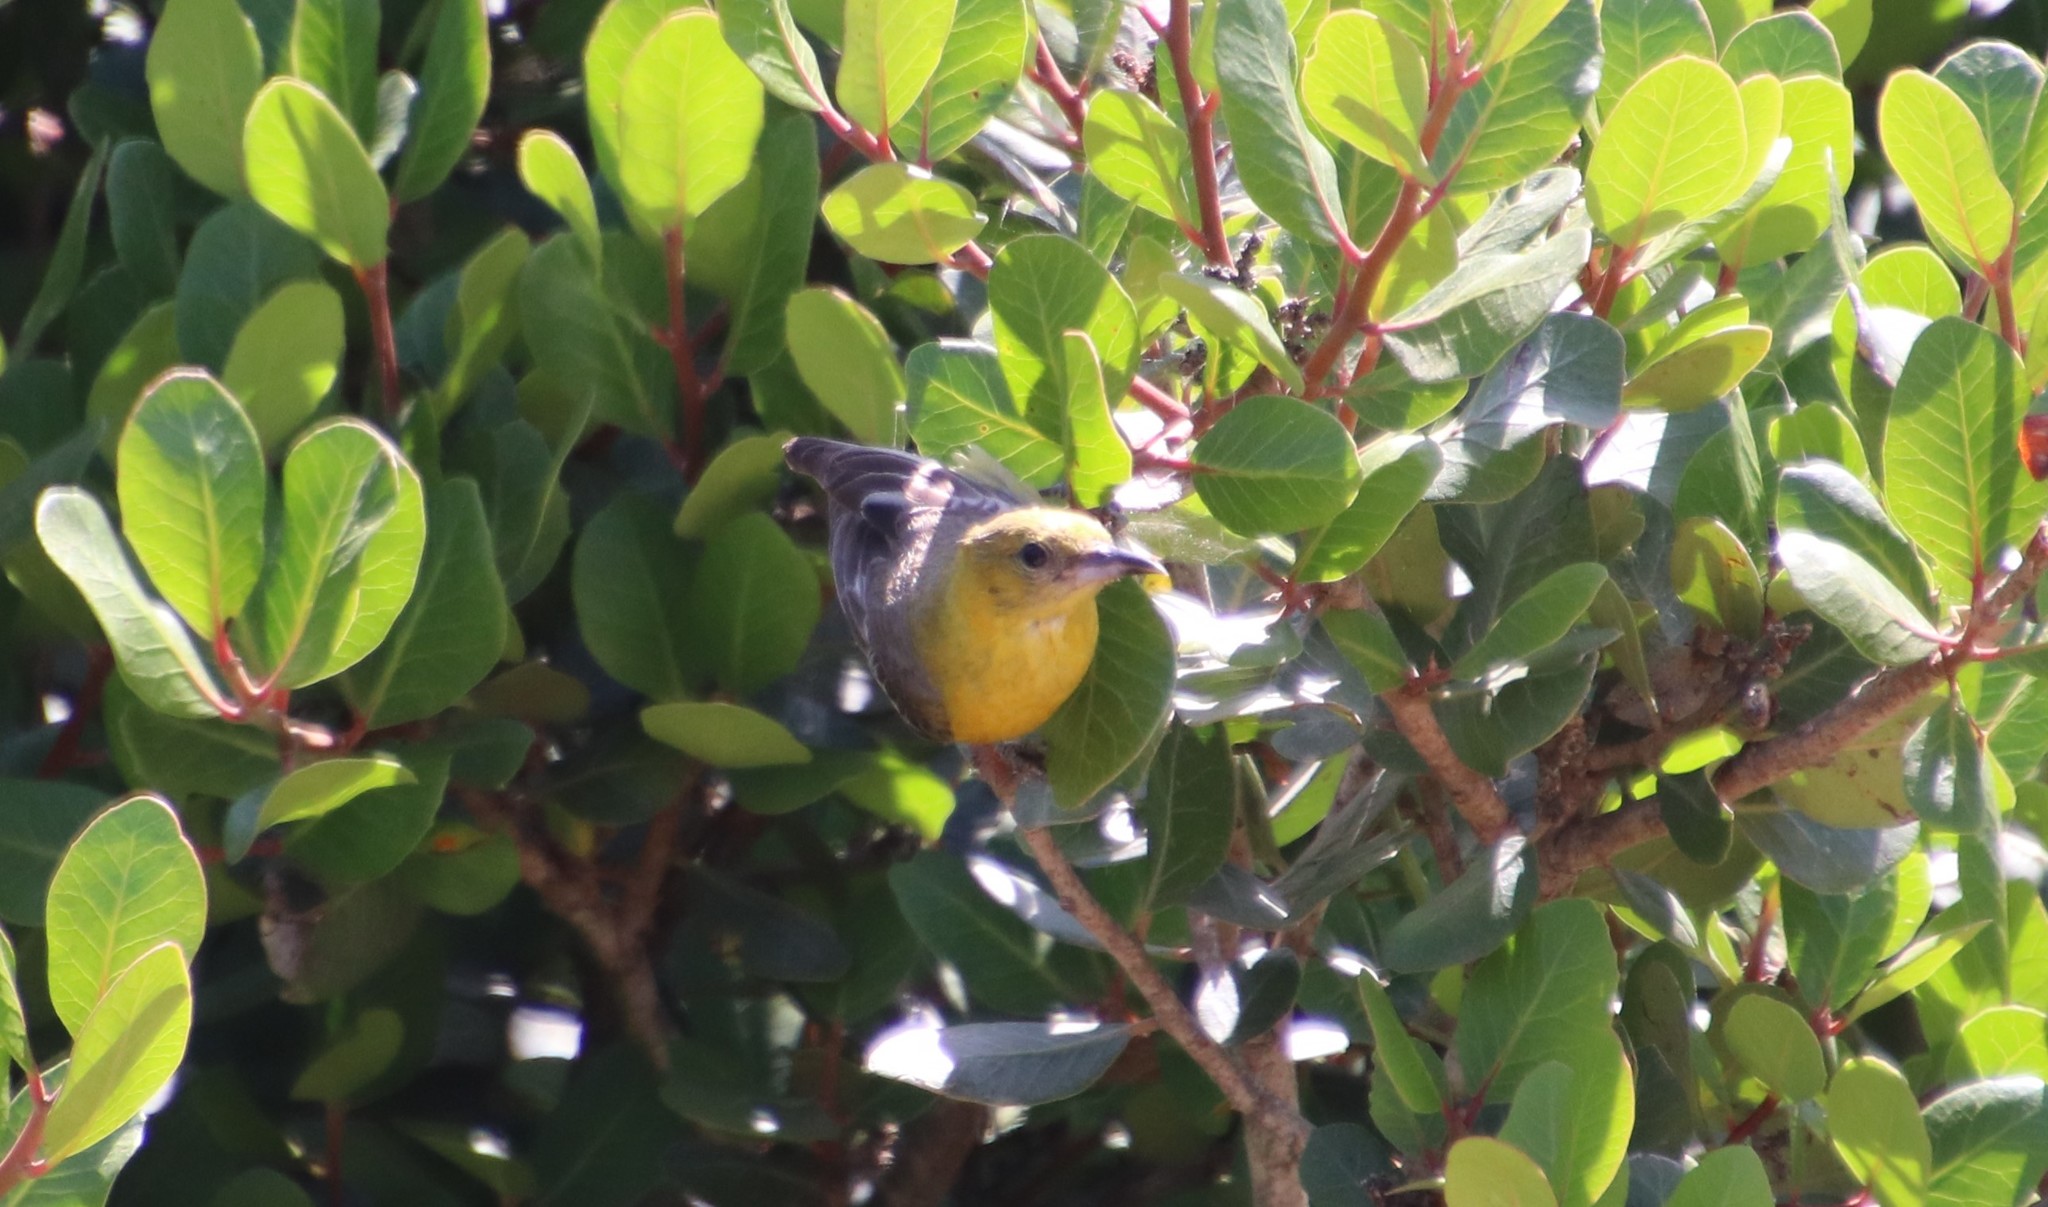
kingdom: Animalia
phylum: Chordata
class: Aves
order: Passeriformes
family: Icteridae
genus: Icterus
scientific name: Icterus cucullatus
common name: Hooded oriole
